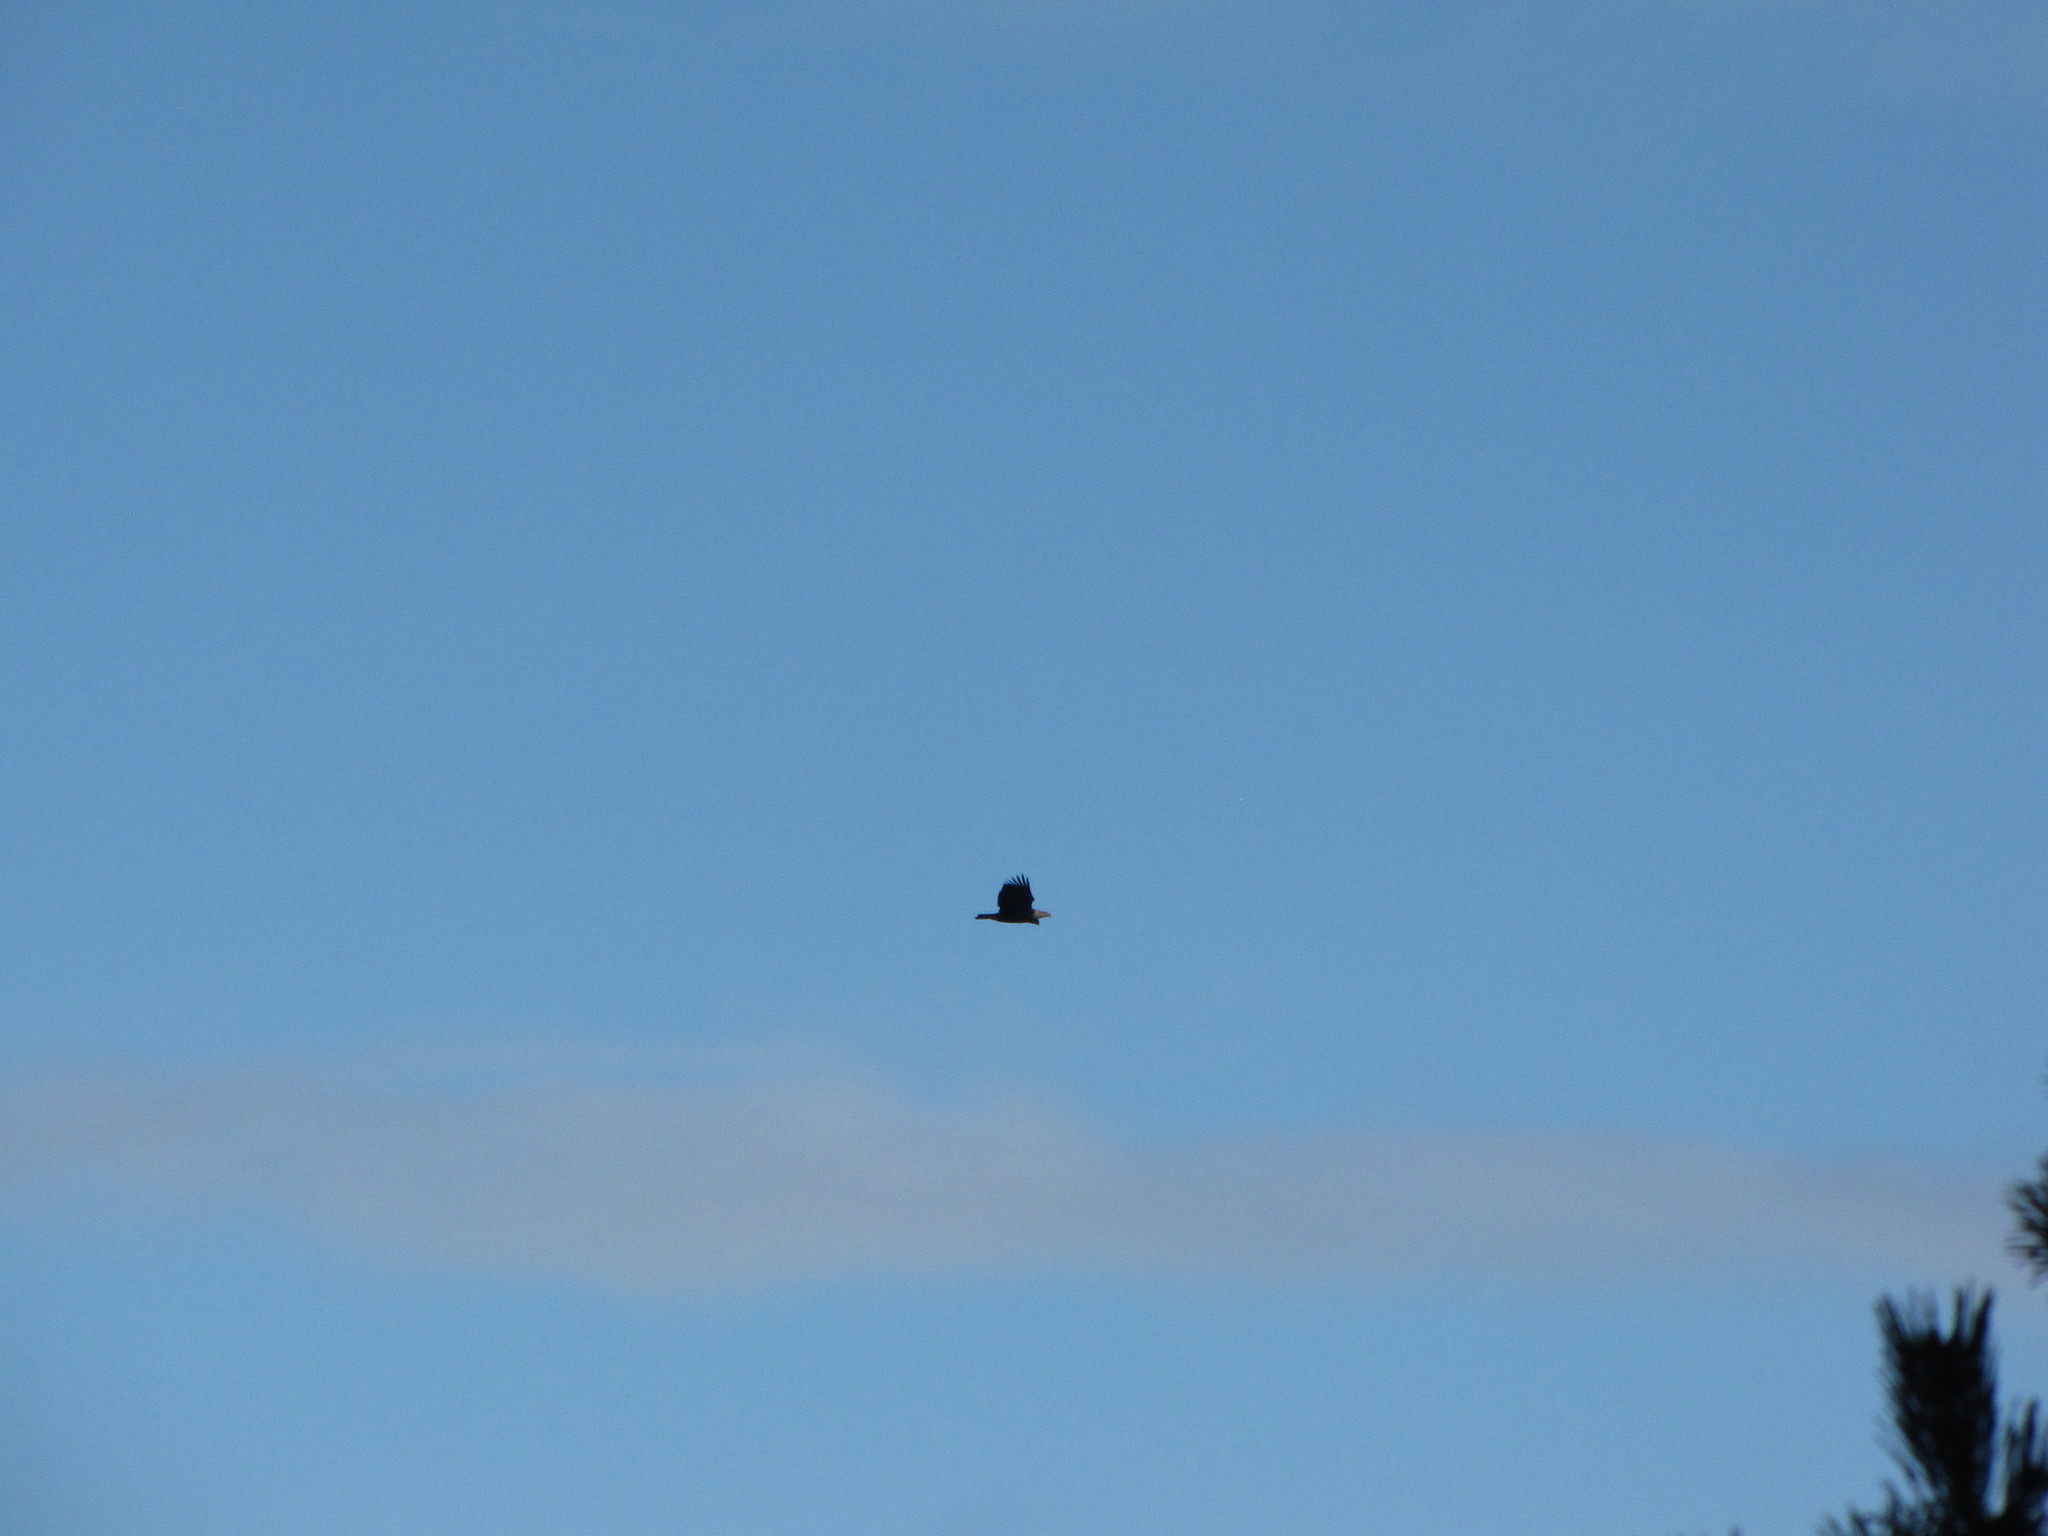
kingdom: Animalia
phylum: Chordata
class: Aves
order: Accipitriformes
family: Accipitridae
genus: Haliaeetus
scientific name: Haliaeetus leucocephalus
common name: Bald eagle
